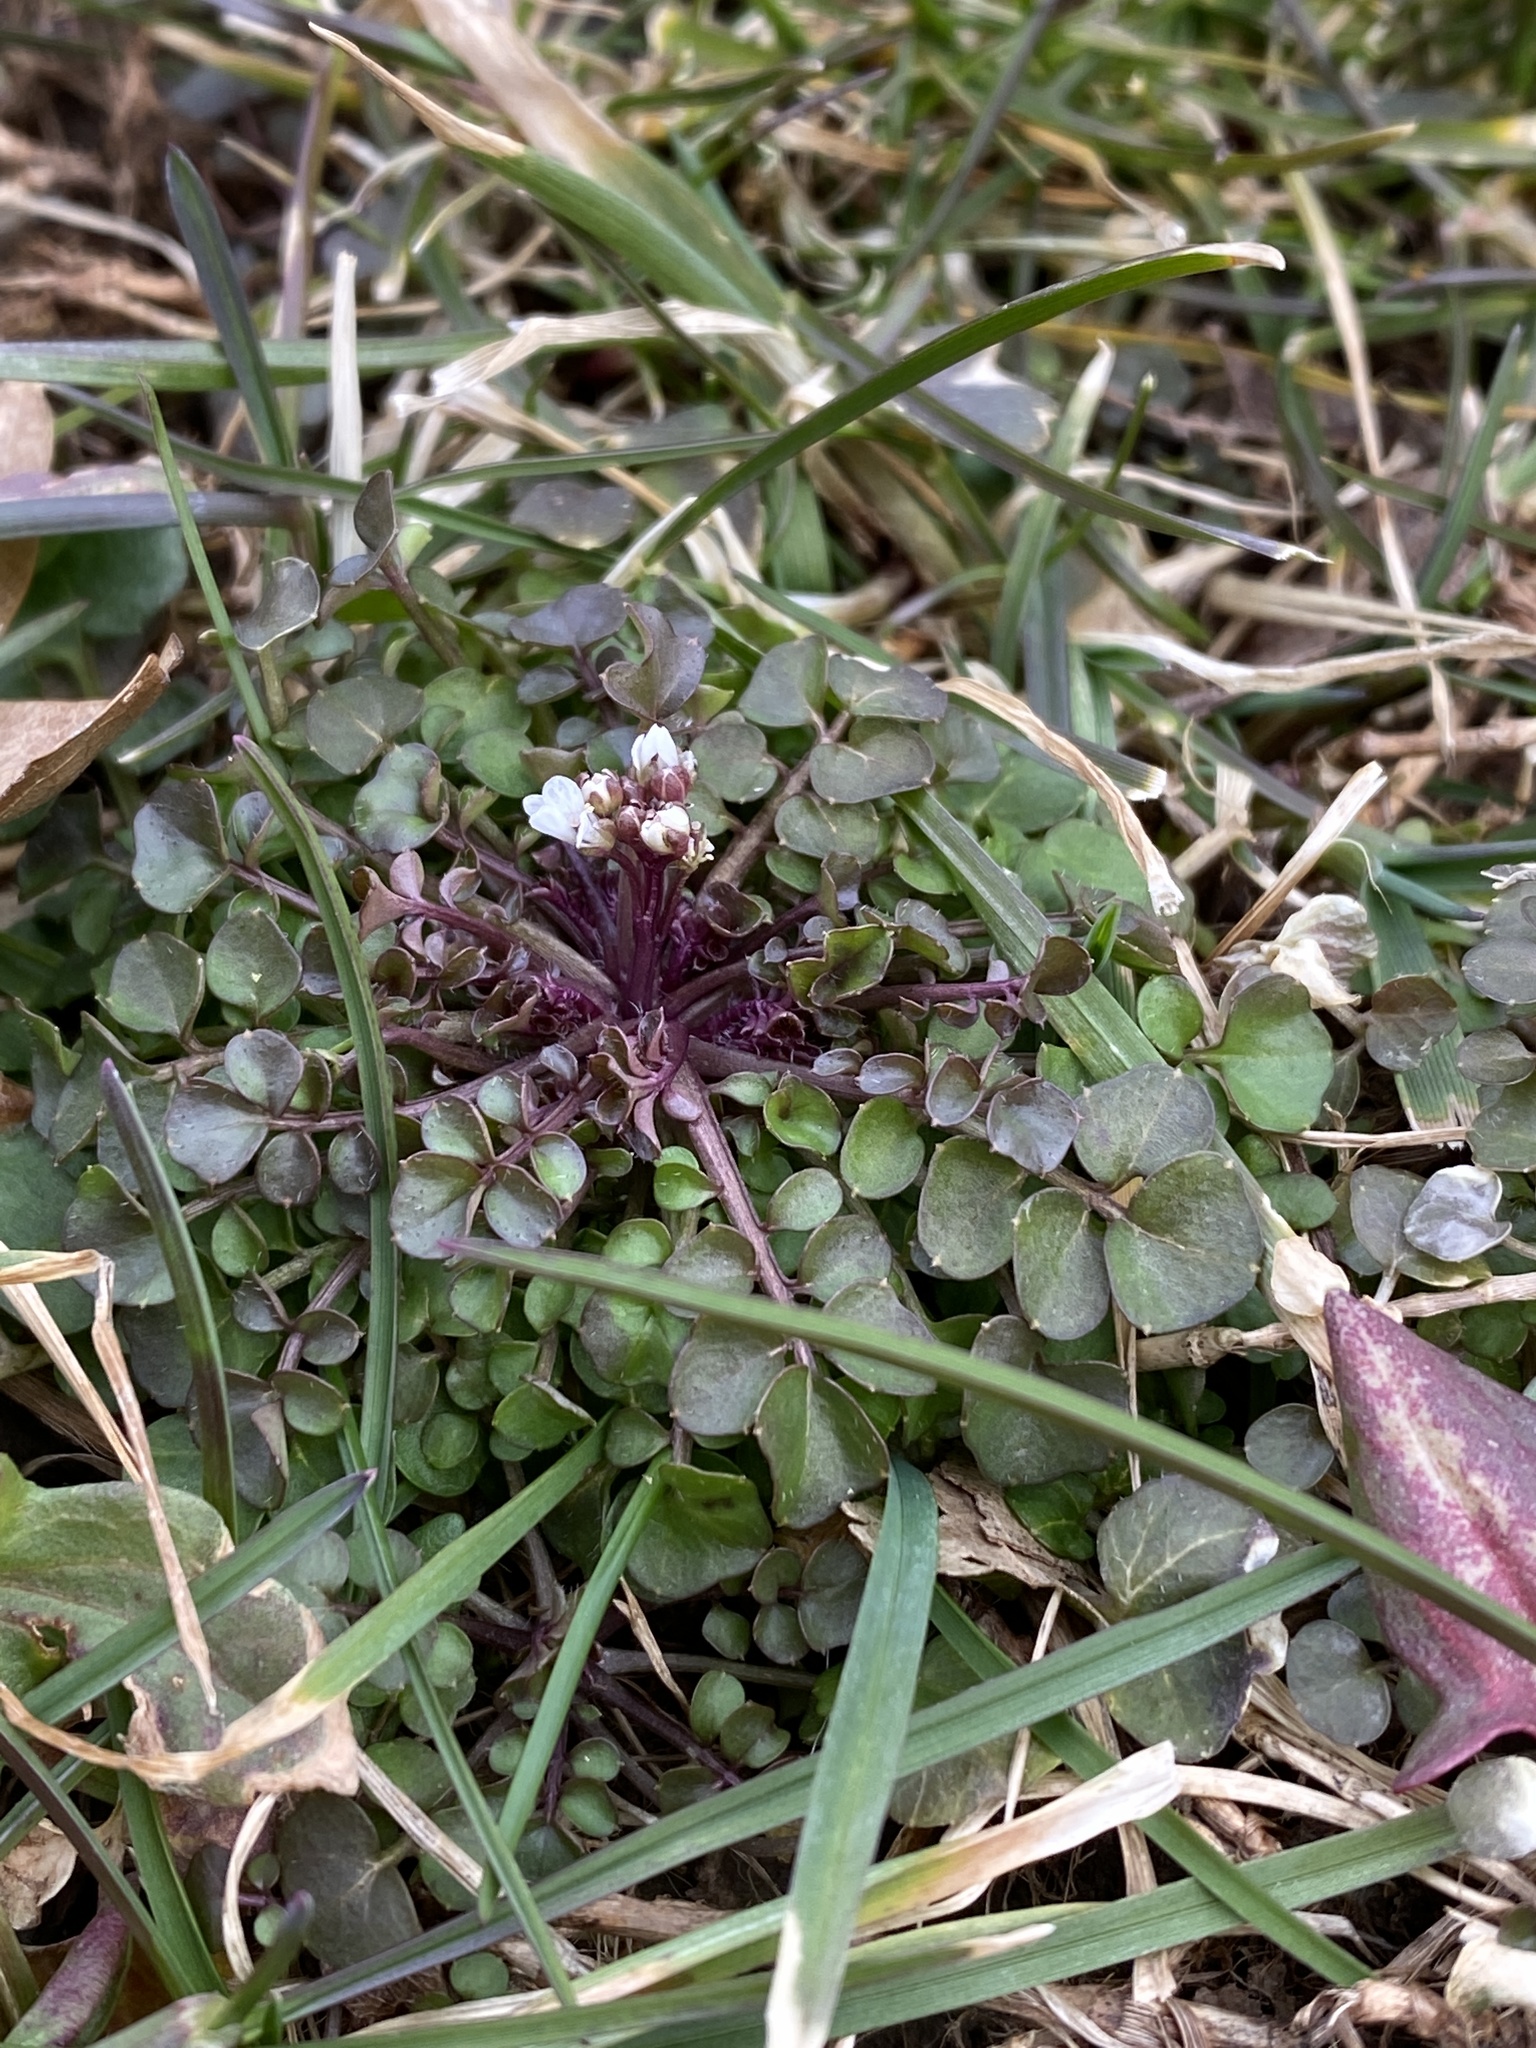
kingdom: Plantae
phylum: Tracheophyta
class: Magnoliopsida
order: Brassicales
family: Brassicaceae
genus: Cardamine
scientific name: Cardamine hirsuta
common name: Hairy bittercress
